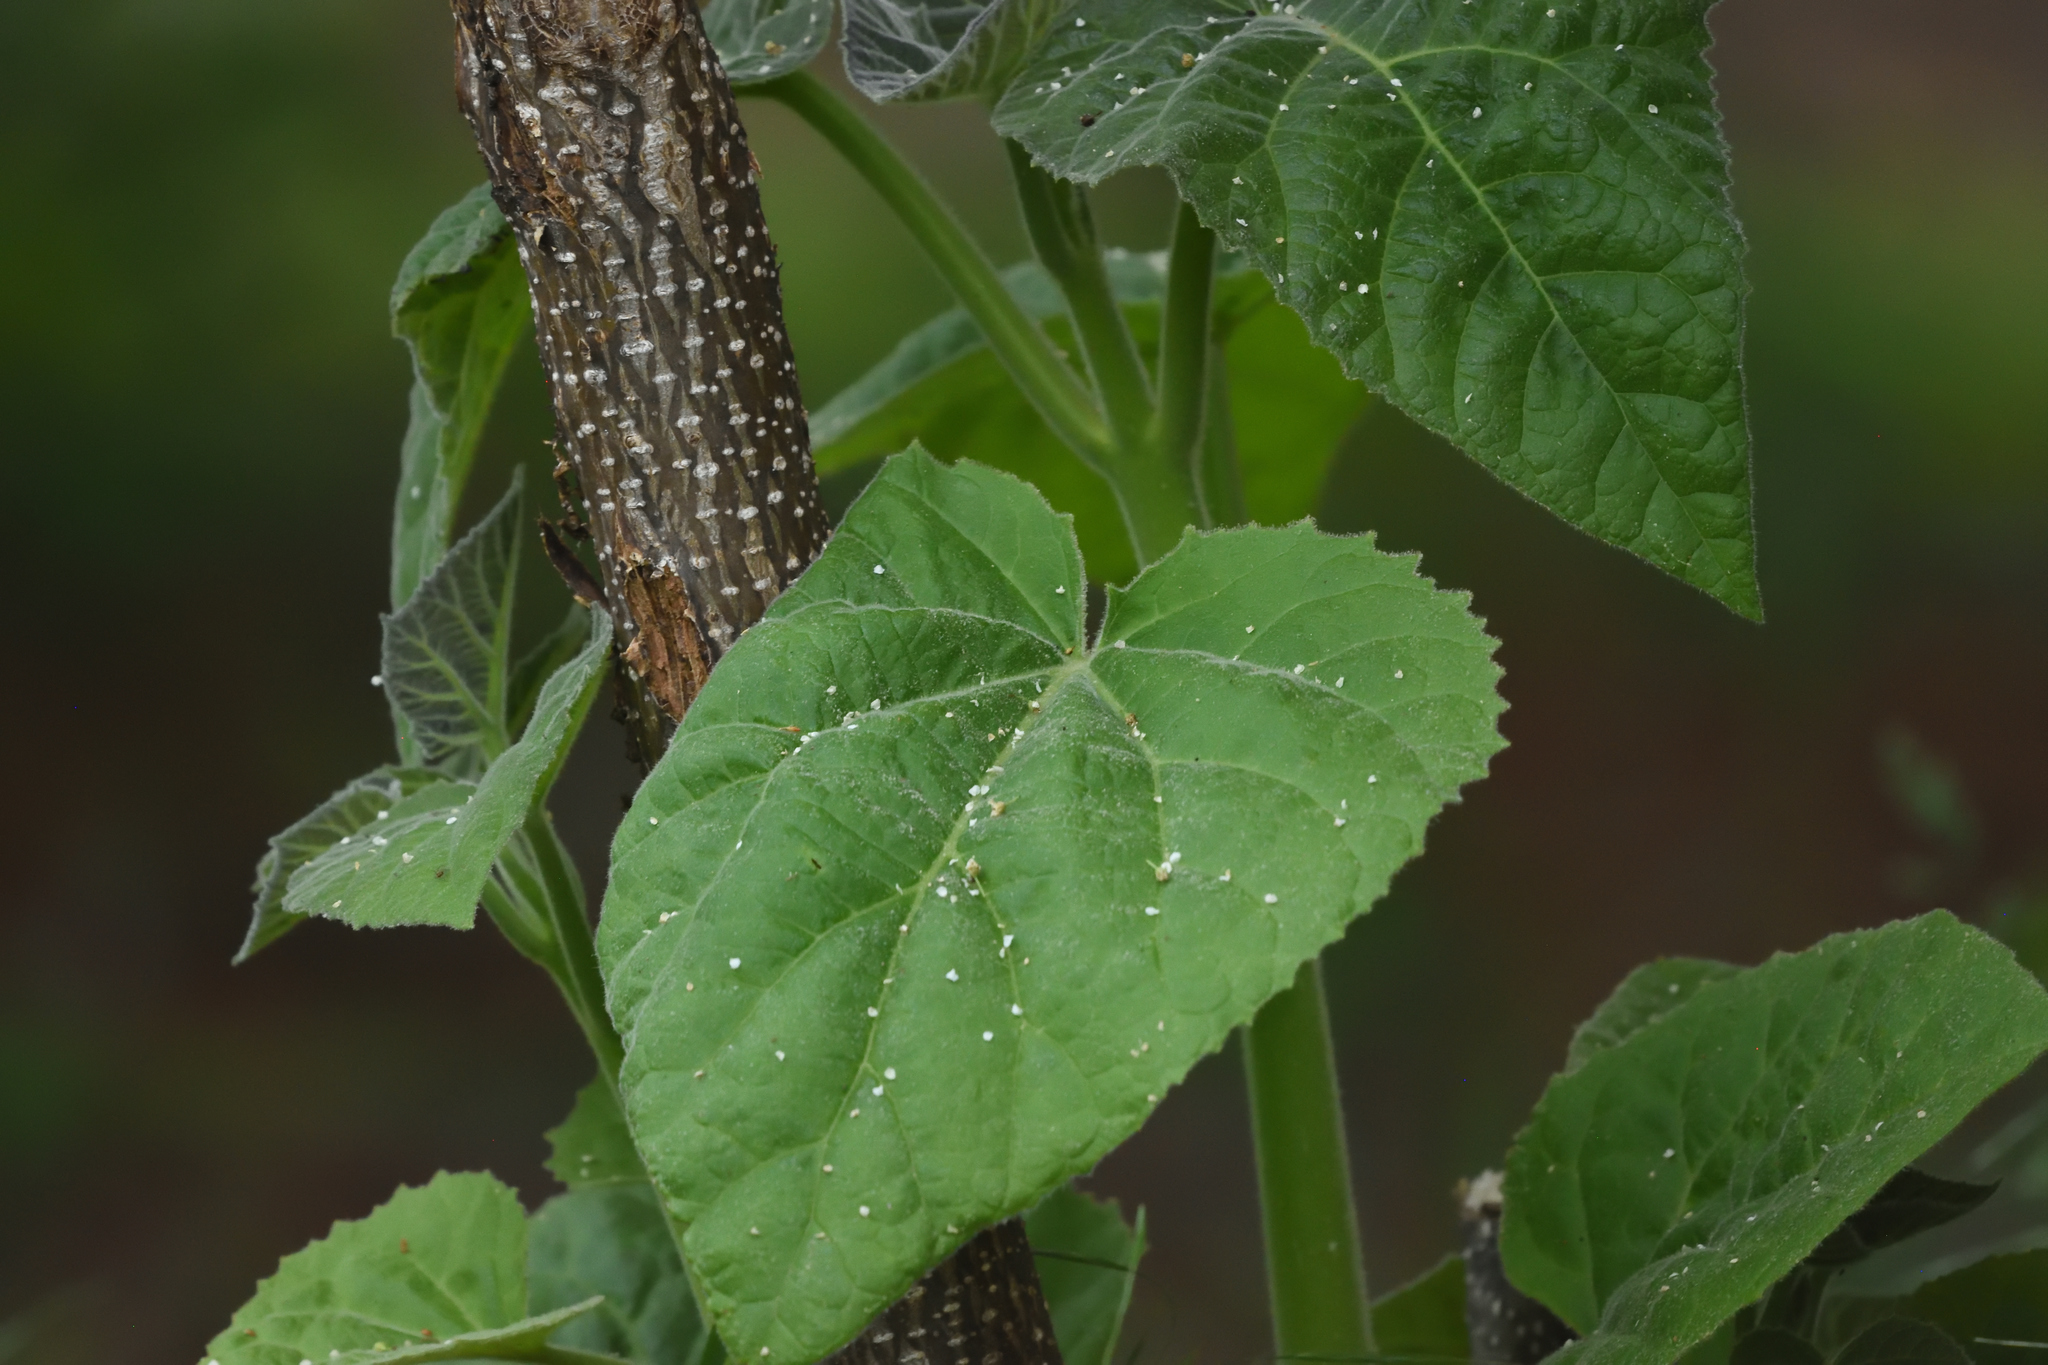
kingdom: Plantae
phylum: Tracheophyta
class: Magnoliopsida
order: Lamiales
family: Paulowniaceae
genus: Paulownia
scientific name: Paulownia tomentosa
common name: Foxglove-tree
